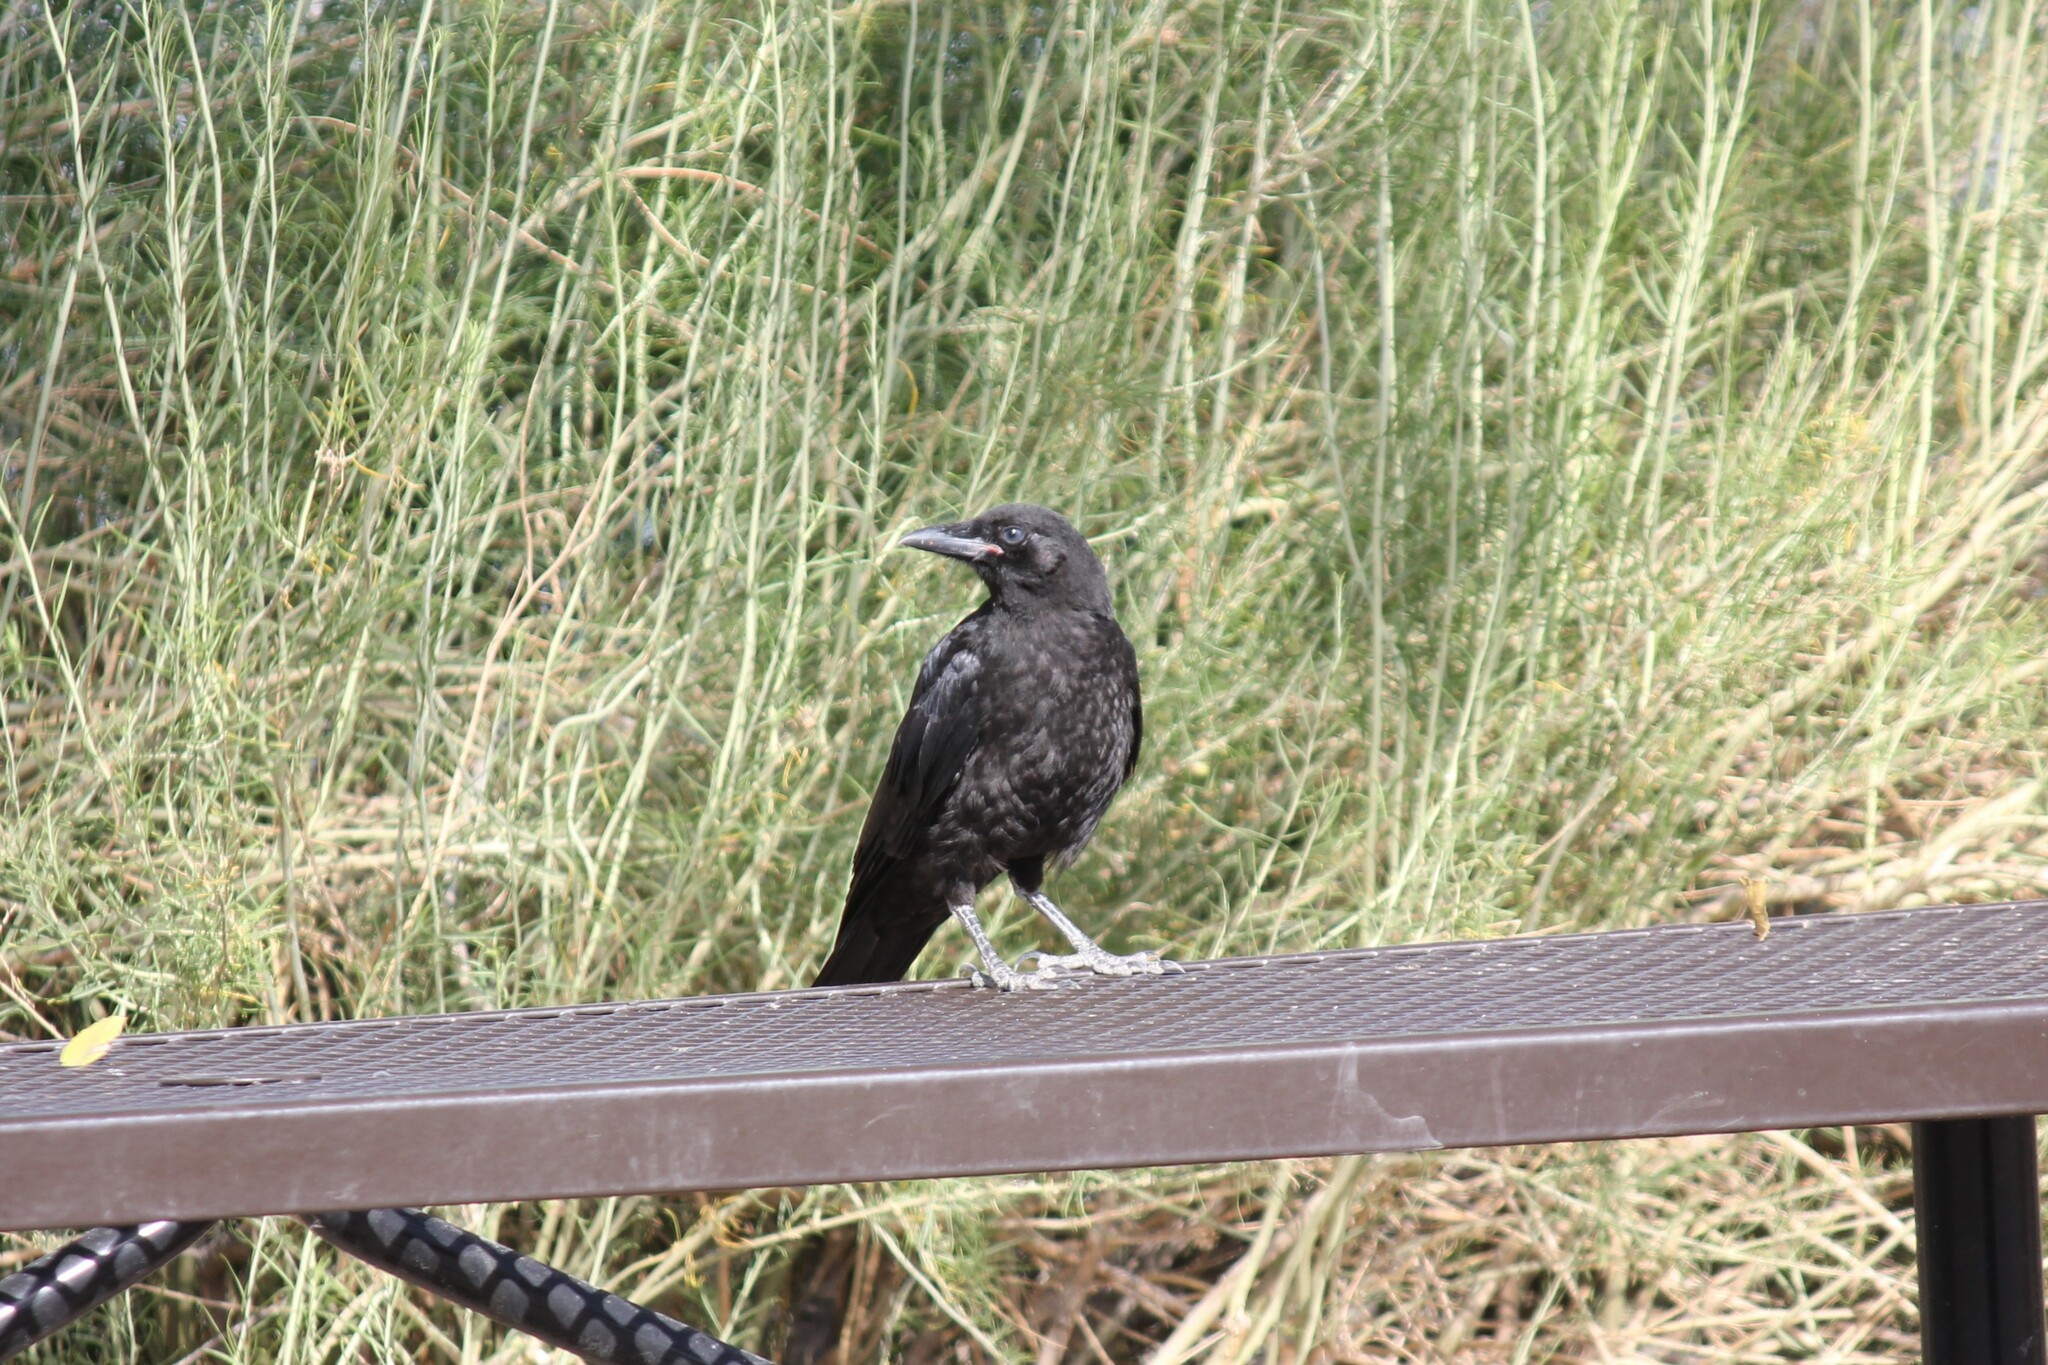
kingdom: Animalia
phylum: Chordata
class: Aves
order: Passeriformes
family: Corvidae
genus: Corvus
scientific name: Corvus brachyrhynchos
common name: American crow
